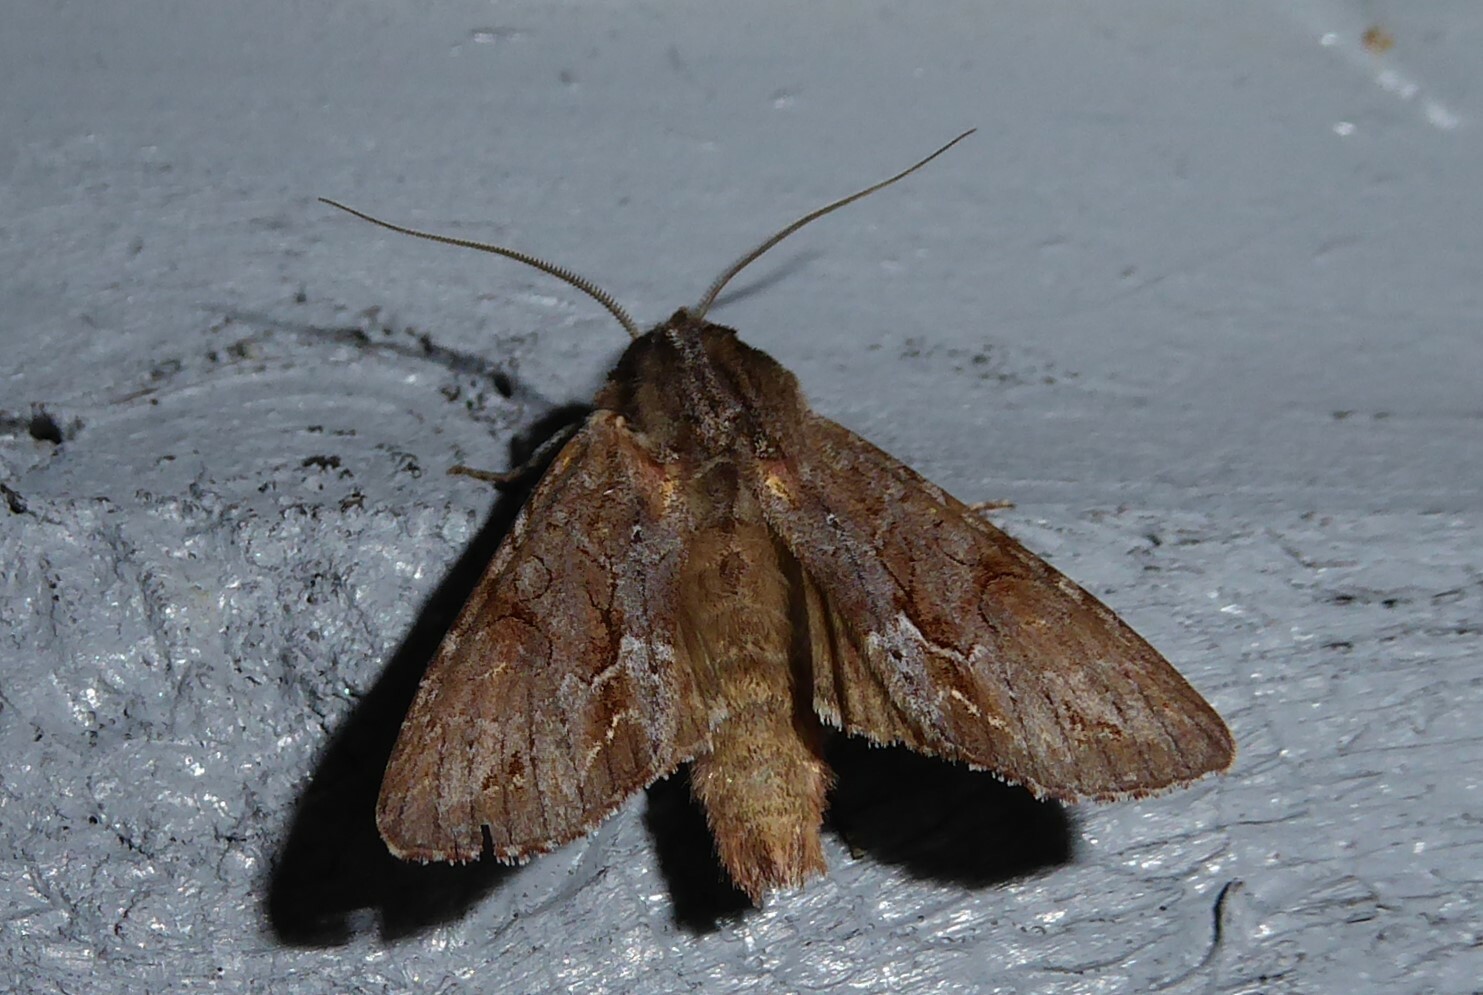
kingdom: Animalia
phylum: Arthropoda
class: Insecta
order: Lepidoptera
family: Noctuidae
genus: Ichneutica
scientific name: Ichneutica
